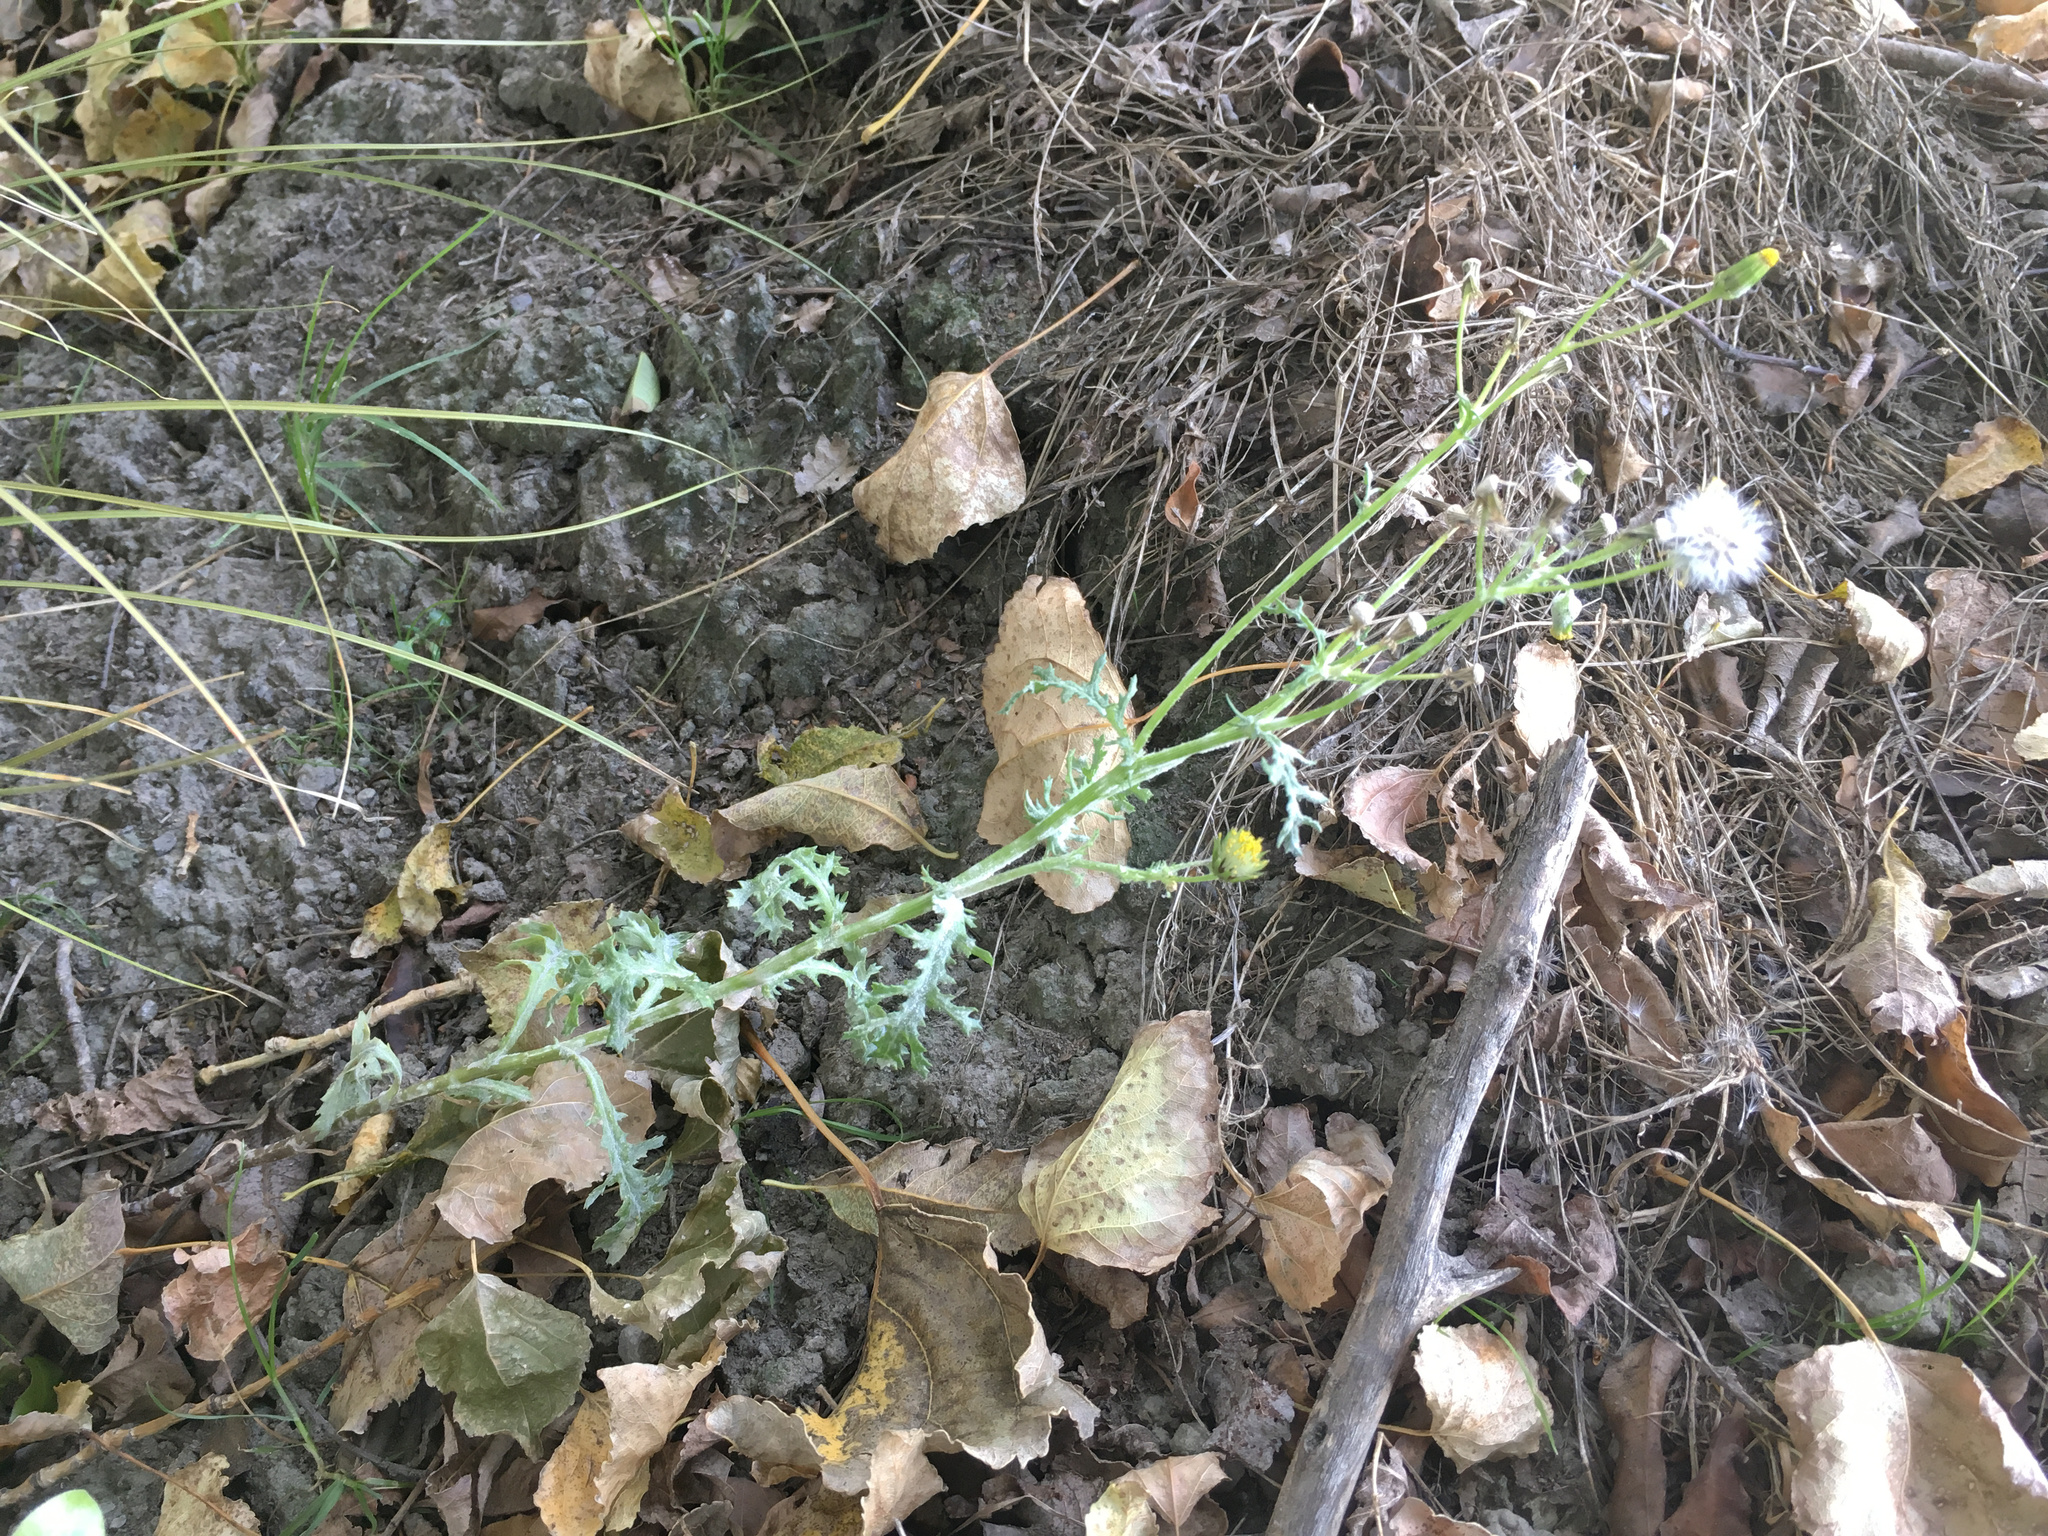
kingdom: Plantae
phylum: Tracheophyta
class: Magnoliopsida
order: Asterales
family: Asteraceae
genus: Senecio
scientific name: Senecio vulgaris
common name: Old-man-in-the-spring
